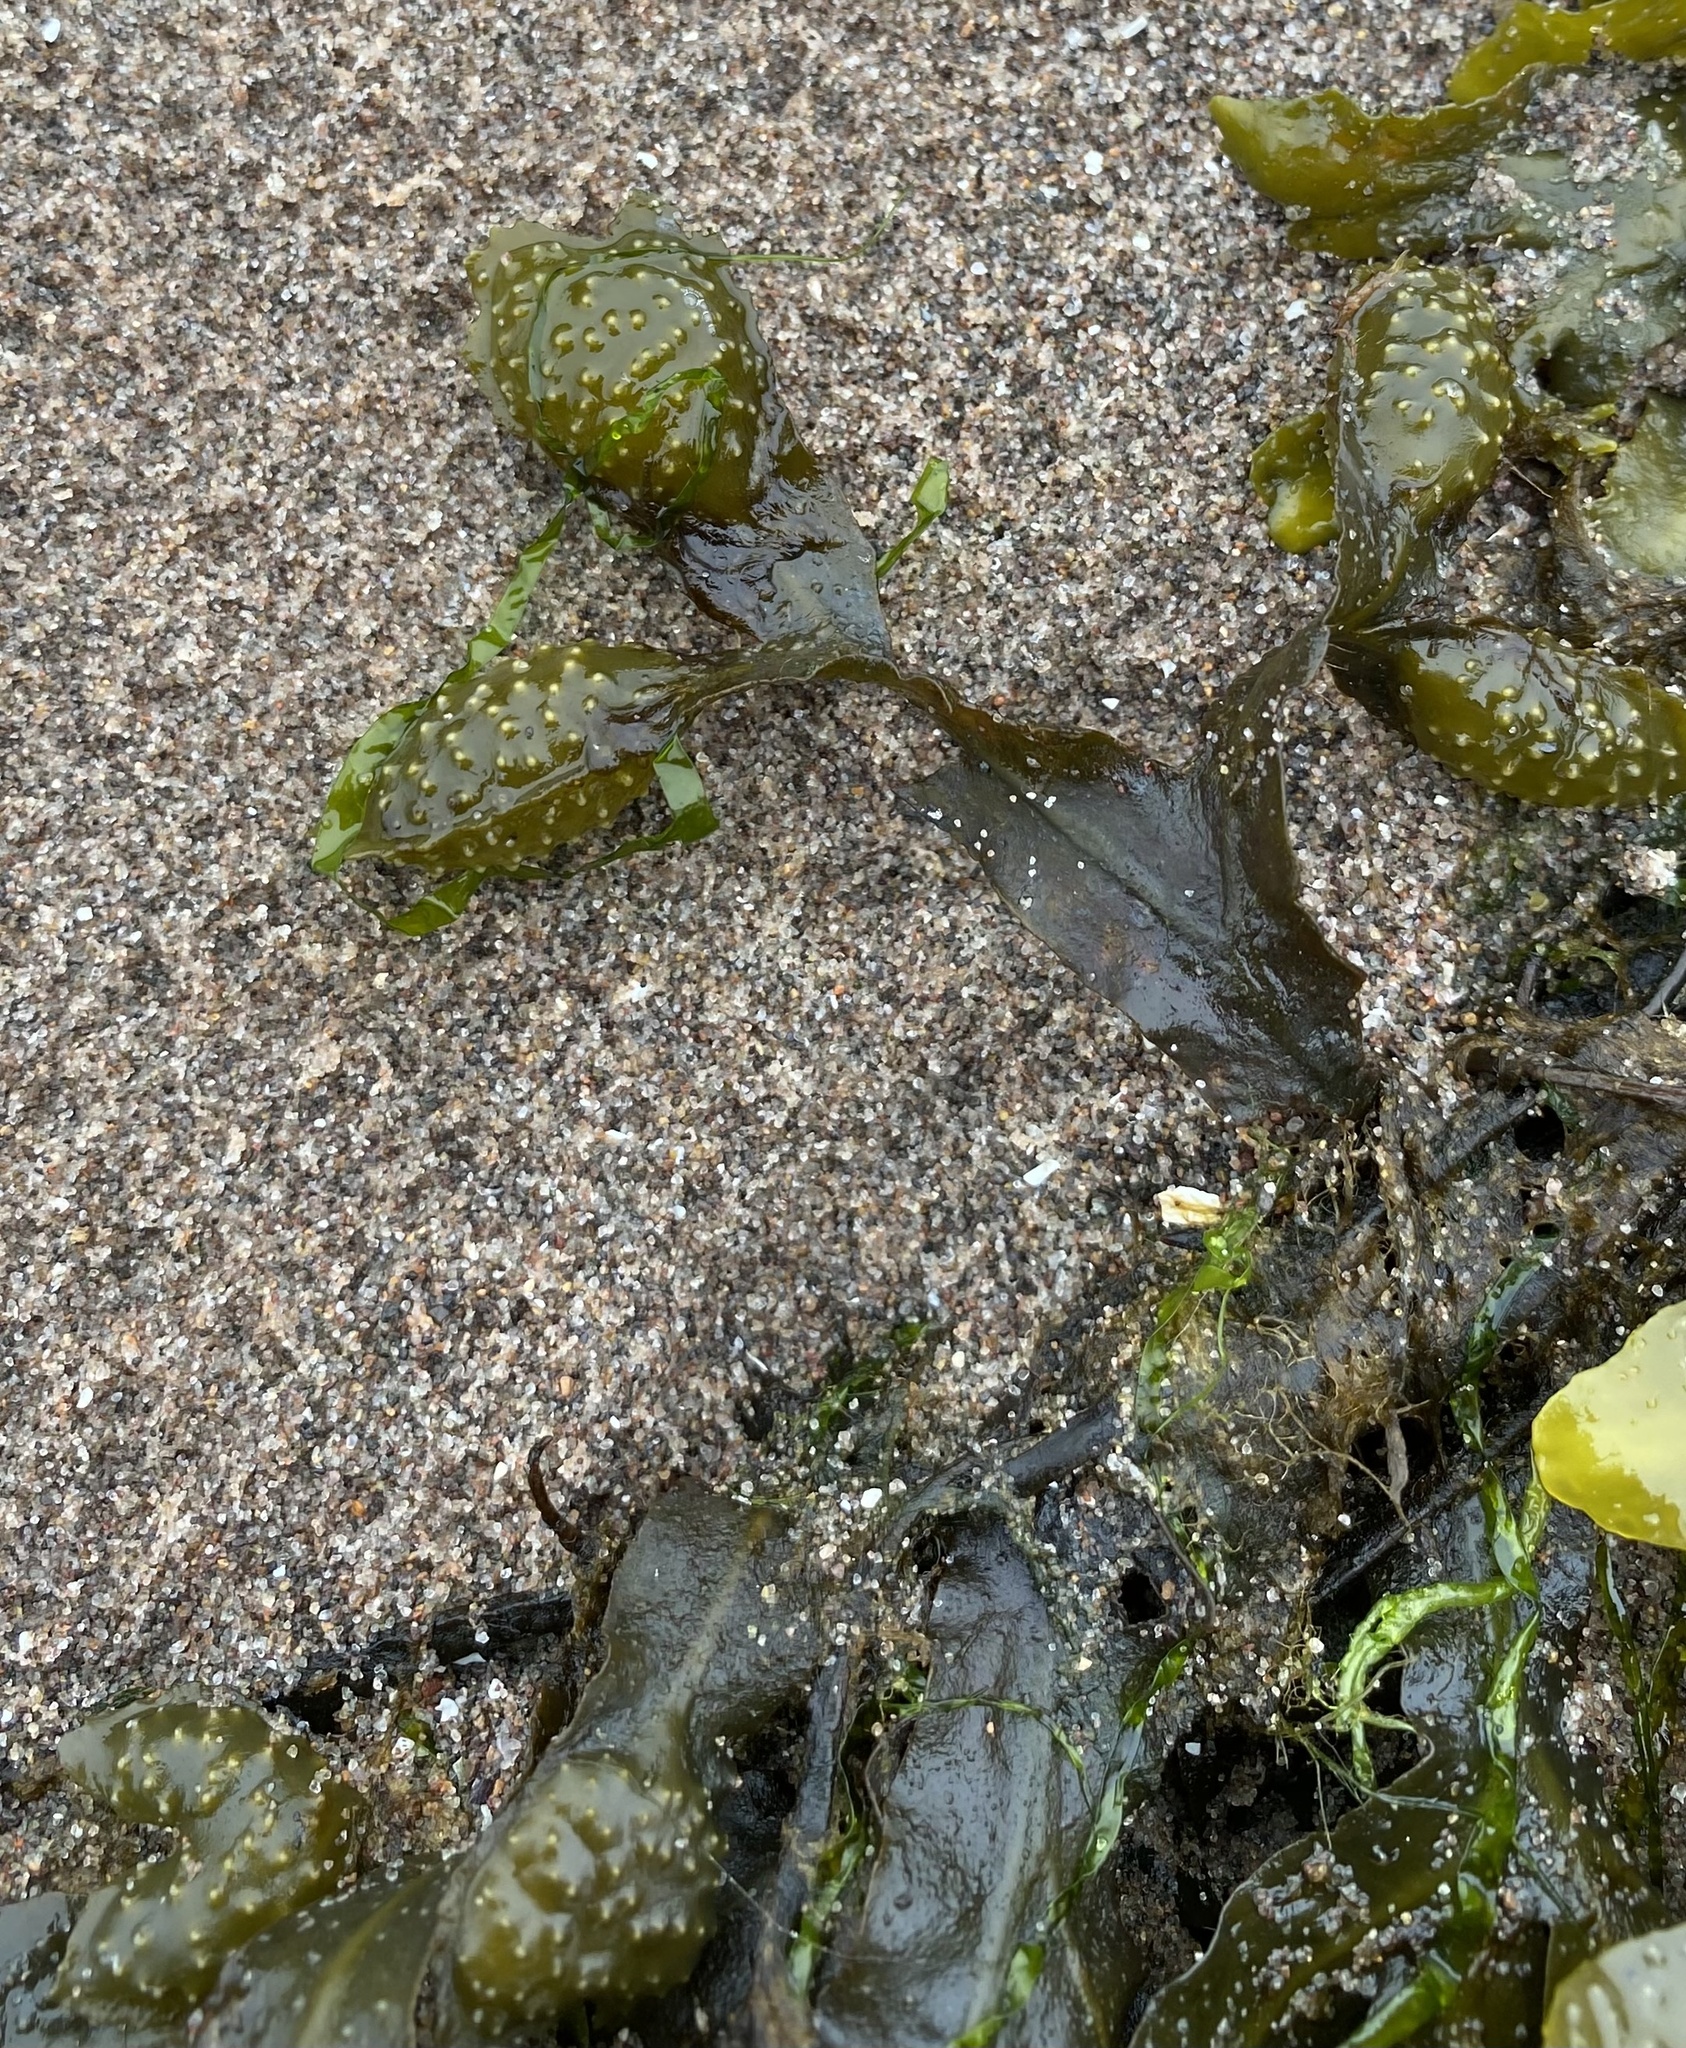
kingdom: Chromista
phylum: Ochrophyta
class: Phaeophyceae
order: Fucales
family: Fucaceae
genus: Fucus
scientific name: Fucus spiralis
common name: Spiral wrack
